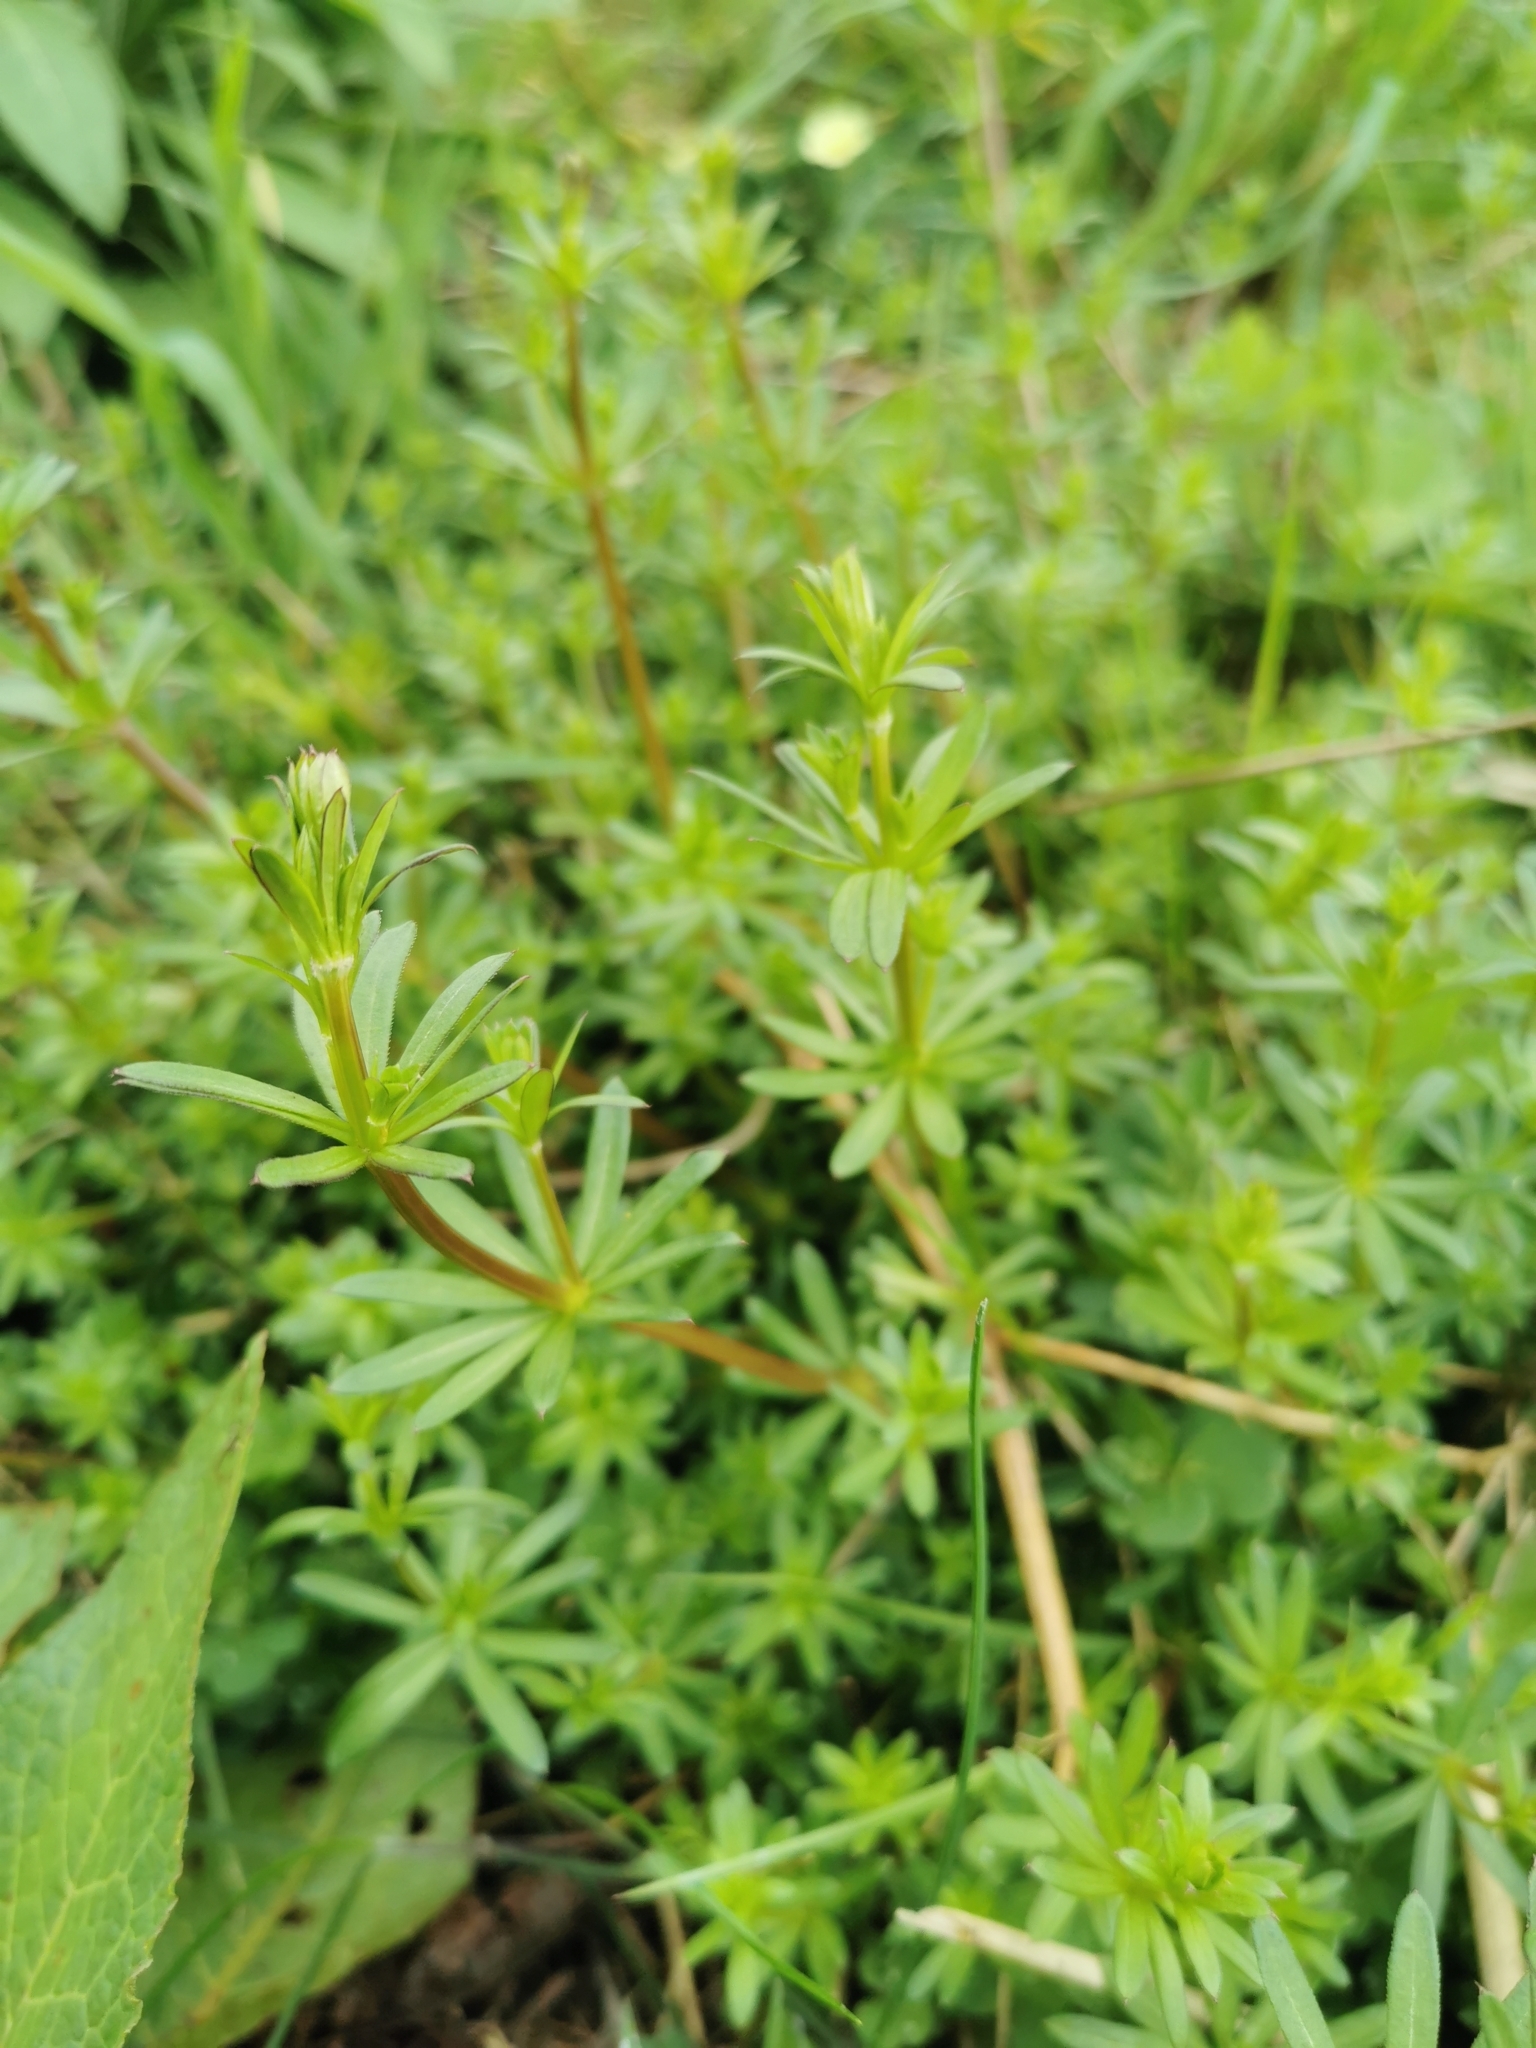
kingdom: Plantae
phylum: Tracheophyta
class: Magnoliopsida
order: Gentianales
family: Rubiaceae
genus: Galium
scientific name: Galium mollugo
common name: Hedge bedstraw
